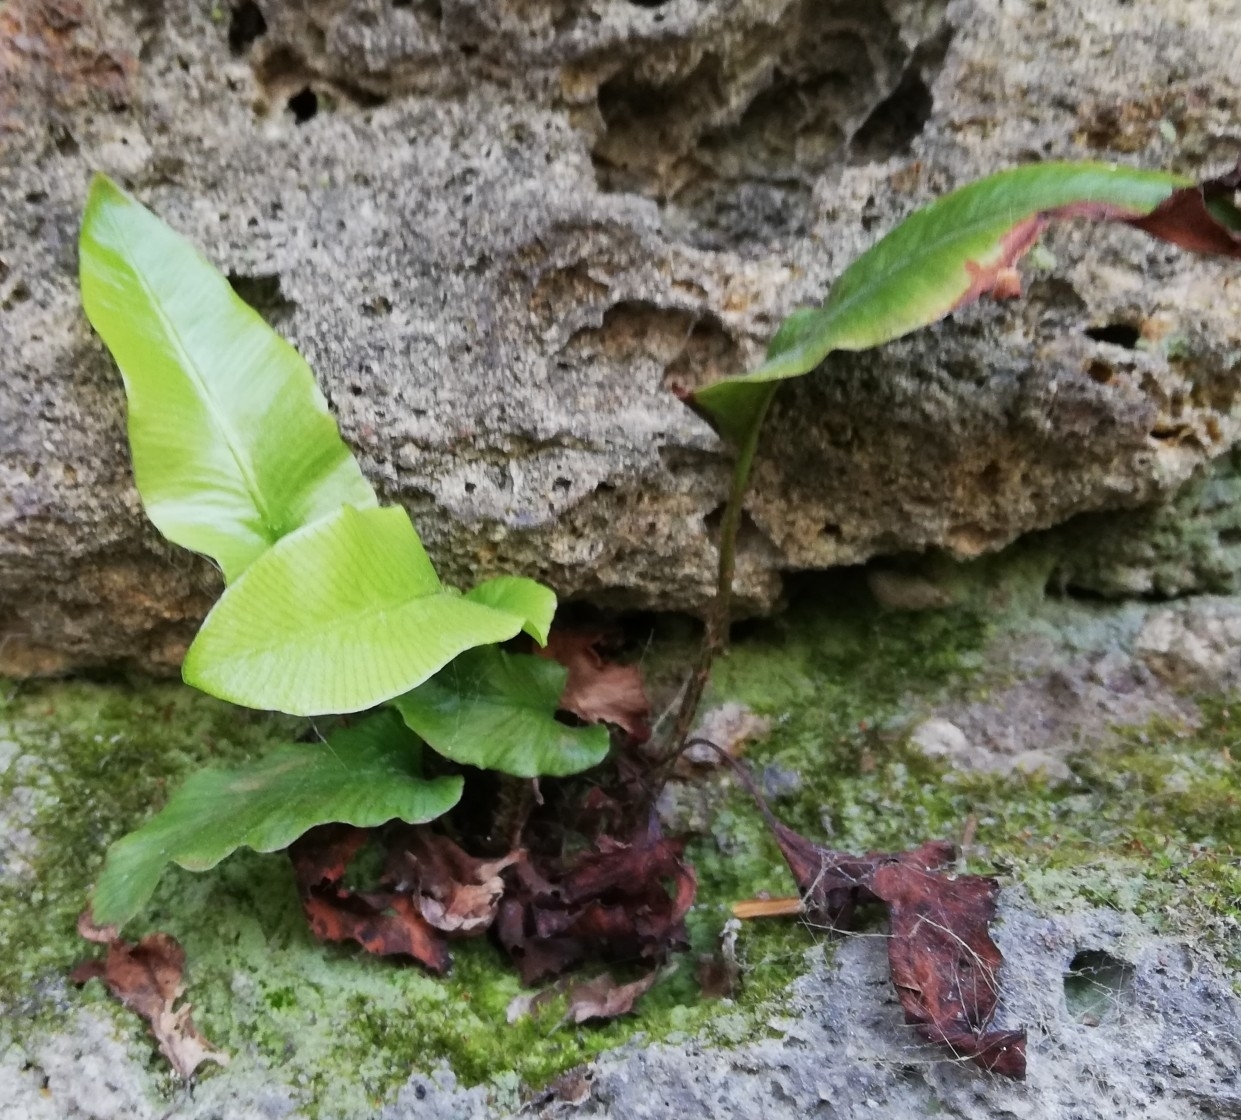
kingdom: Plantae
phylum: Tracheophyta
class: Polypodiopsida
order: Polypodiales
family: Aspleniaceae
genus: Asplenium
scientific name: Asplenium scolopendrium
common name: Hart's-tongue fern
